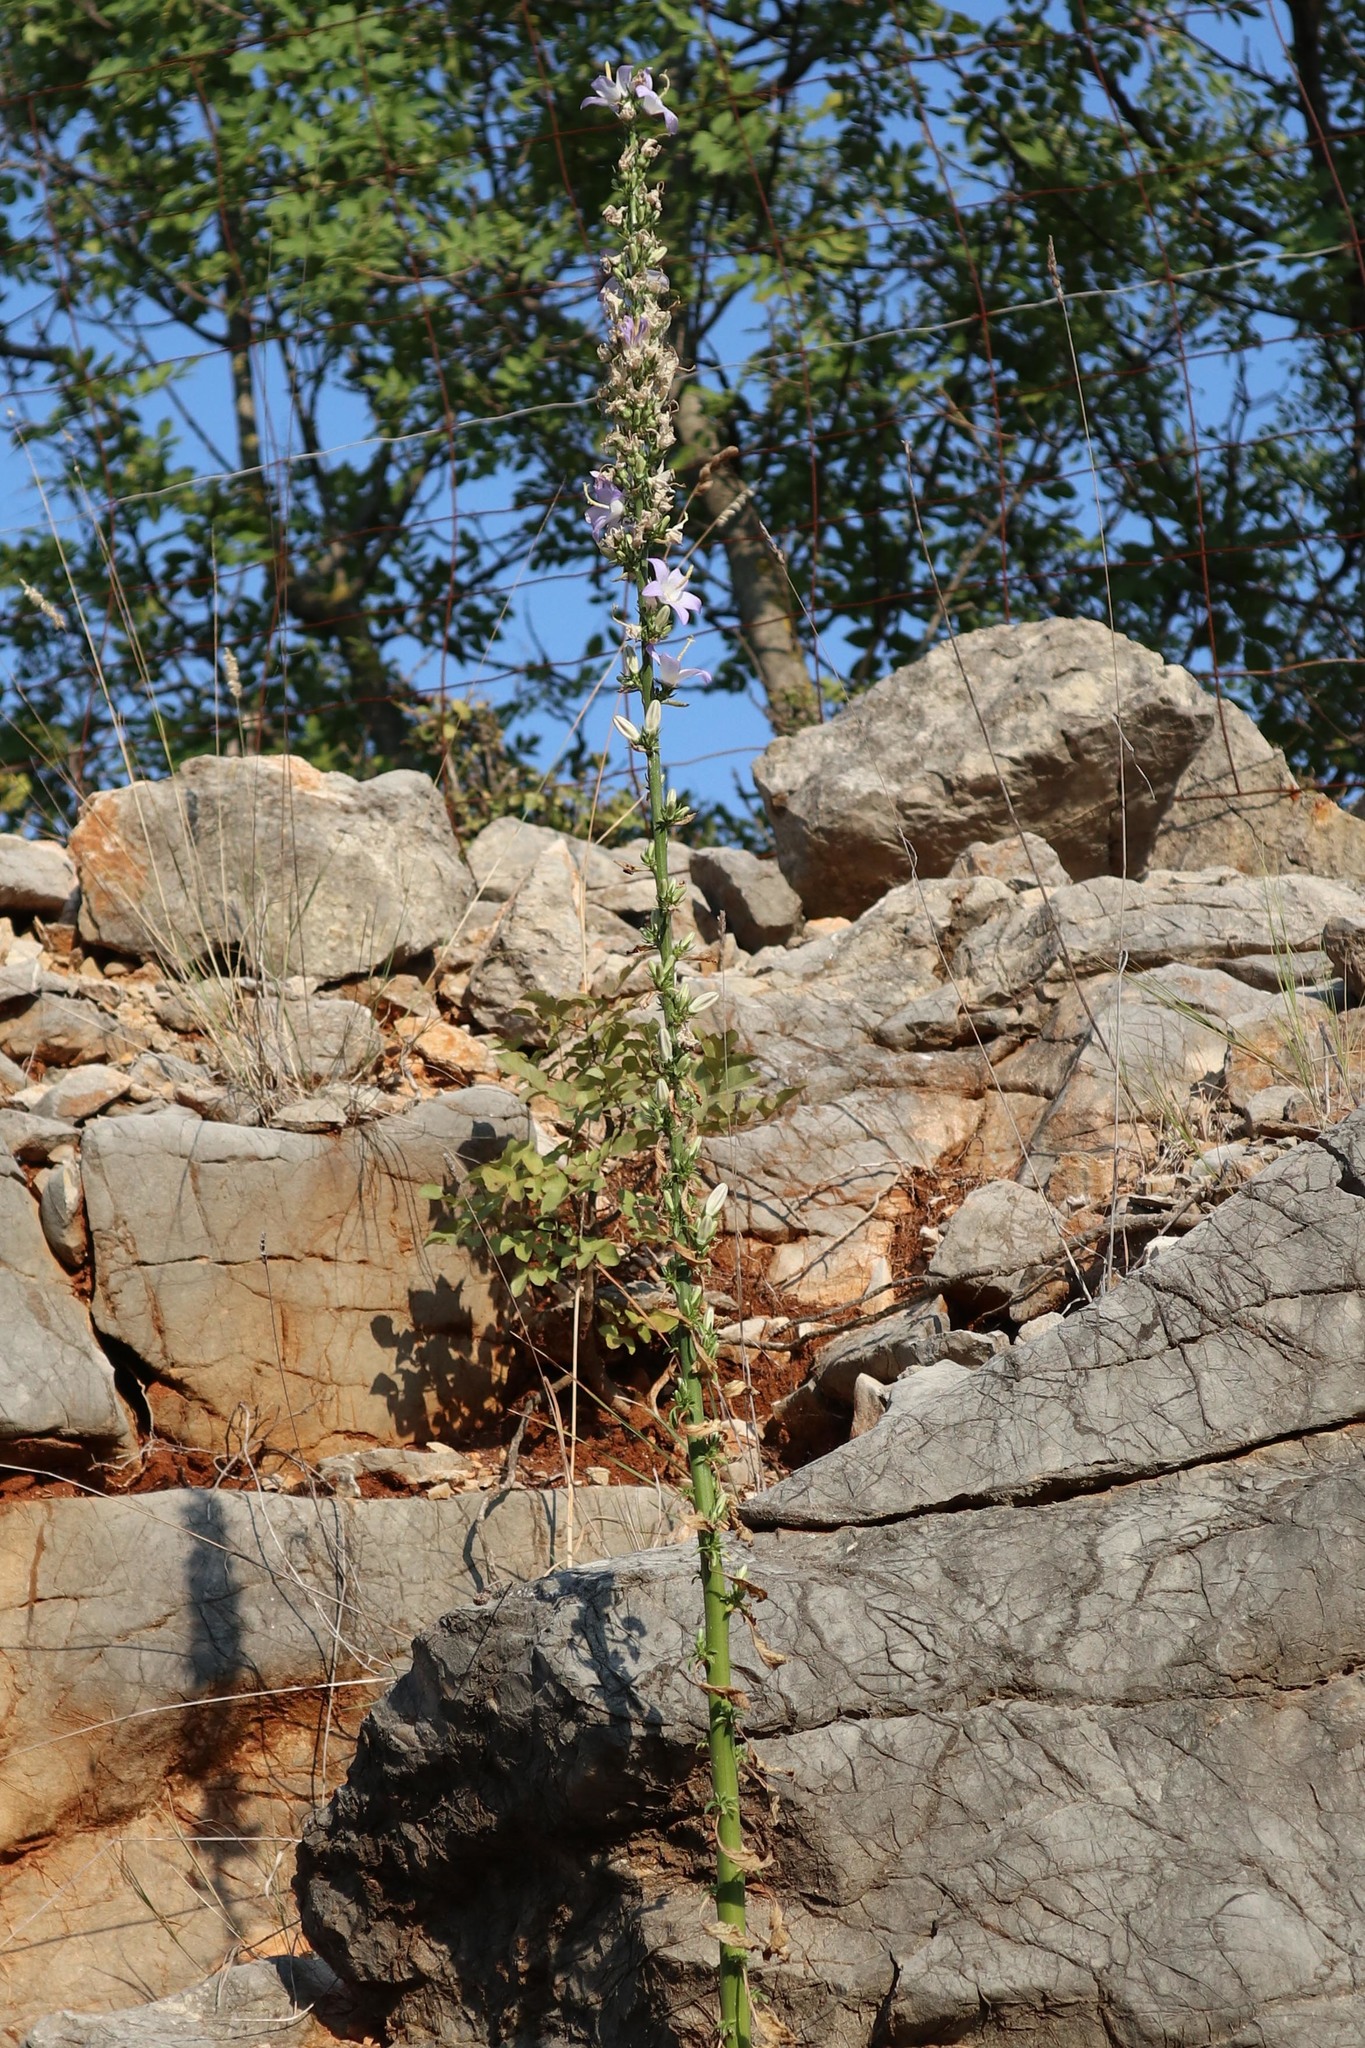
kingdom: Plantae
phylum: Tracheophyta
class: Magnoliopsida
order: Asterales
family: Campanulaceae
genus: Campanula
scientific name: Campanula pyramidalis
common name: Chimney bellflower
